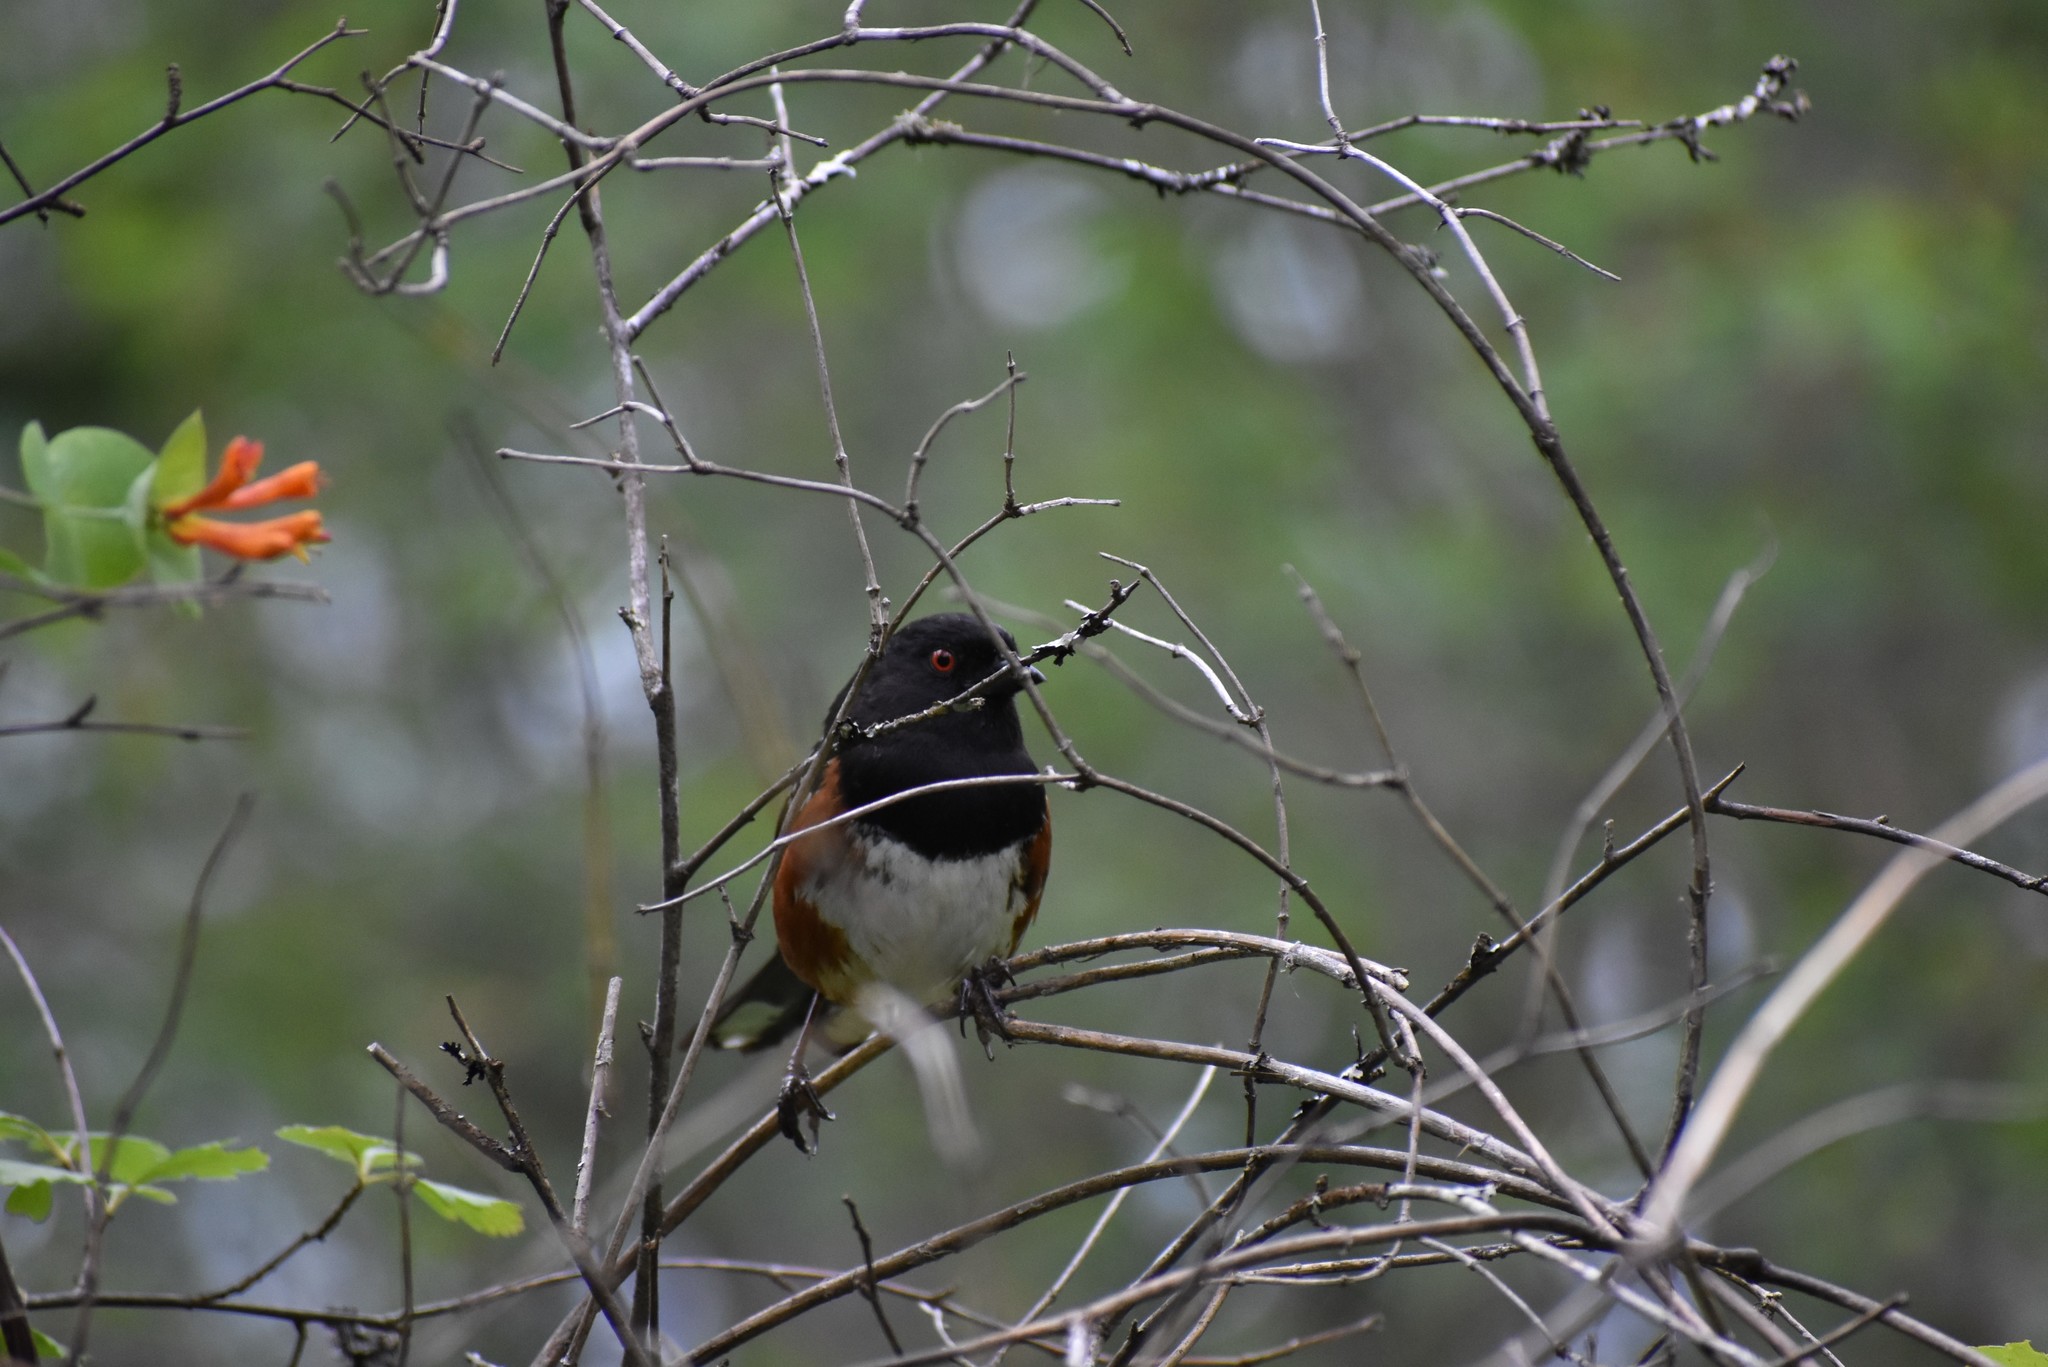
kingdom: Animalia
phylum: Chordata
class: Aves
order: Passeriformes
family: Passerellidae
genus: Pipilo
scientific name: Pipilo maculatus
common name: Spotted towhee
